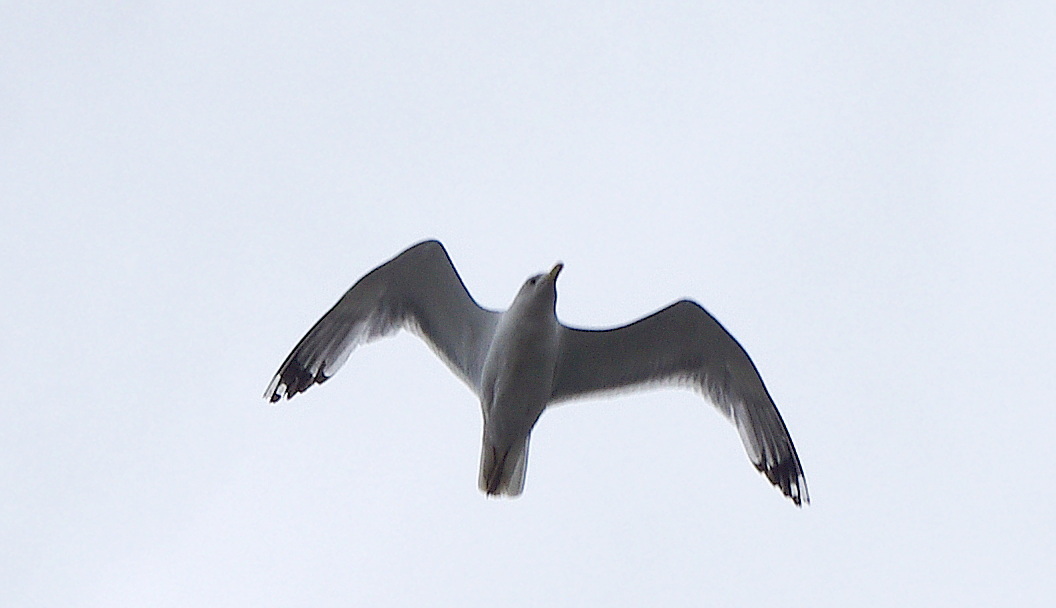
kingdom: Animalia
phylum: Chordata
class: Aves
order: Charadriiformes
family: Laridae
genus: Larus
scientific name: Larus argentatus
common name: Herring gull
